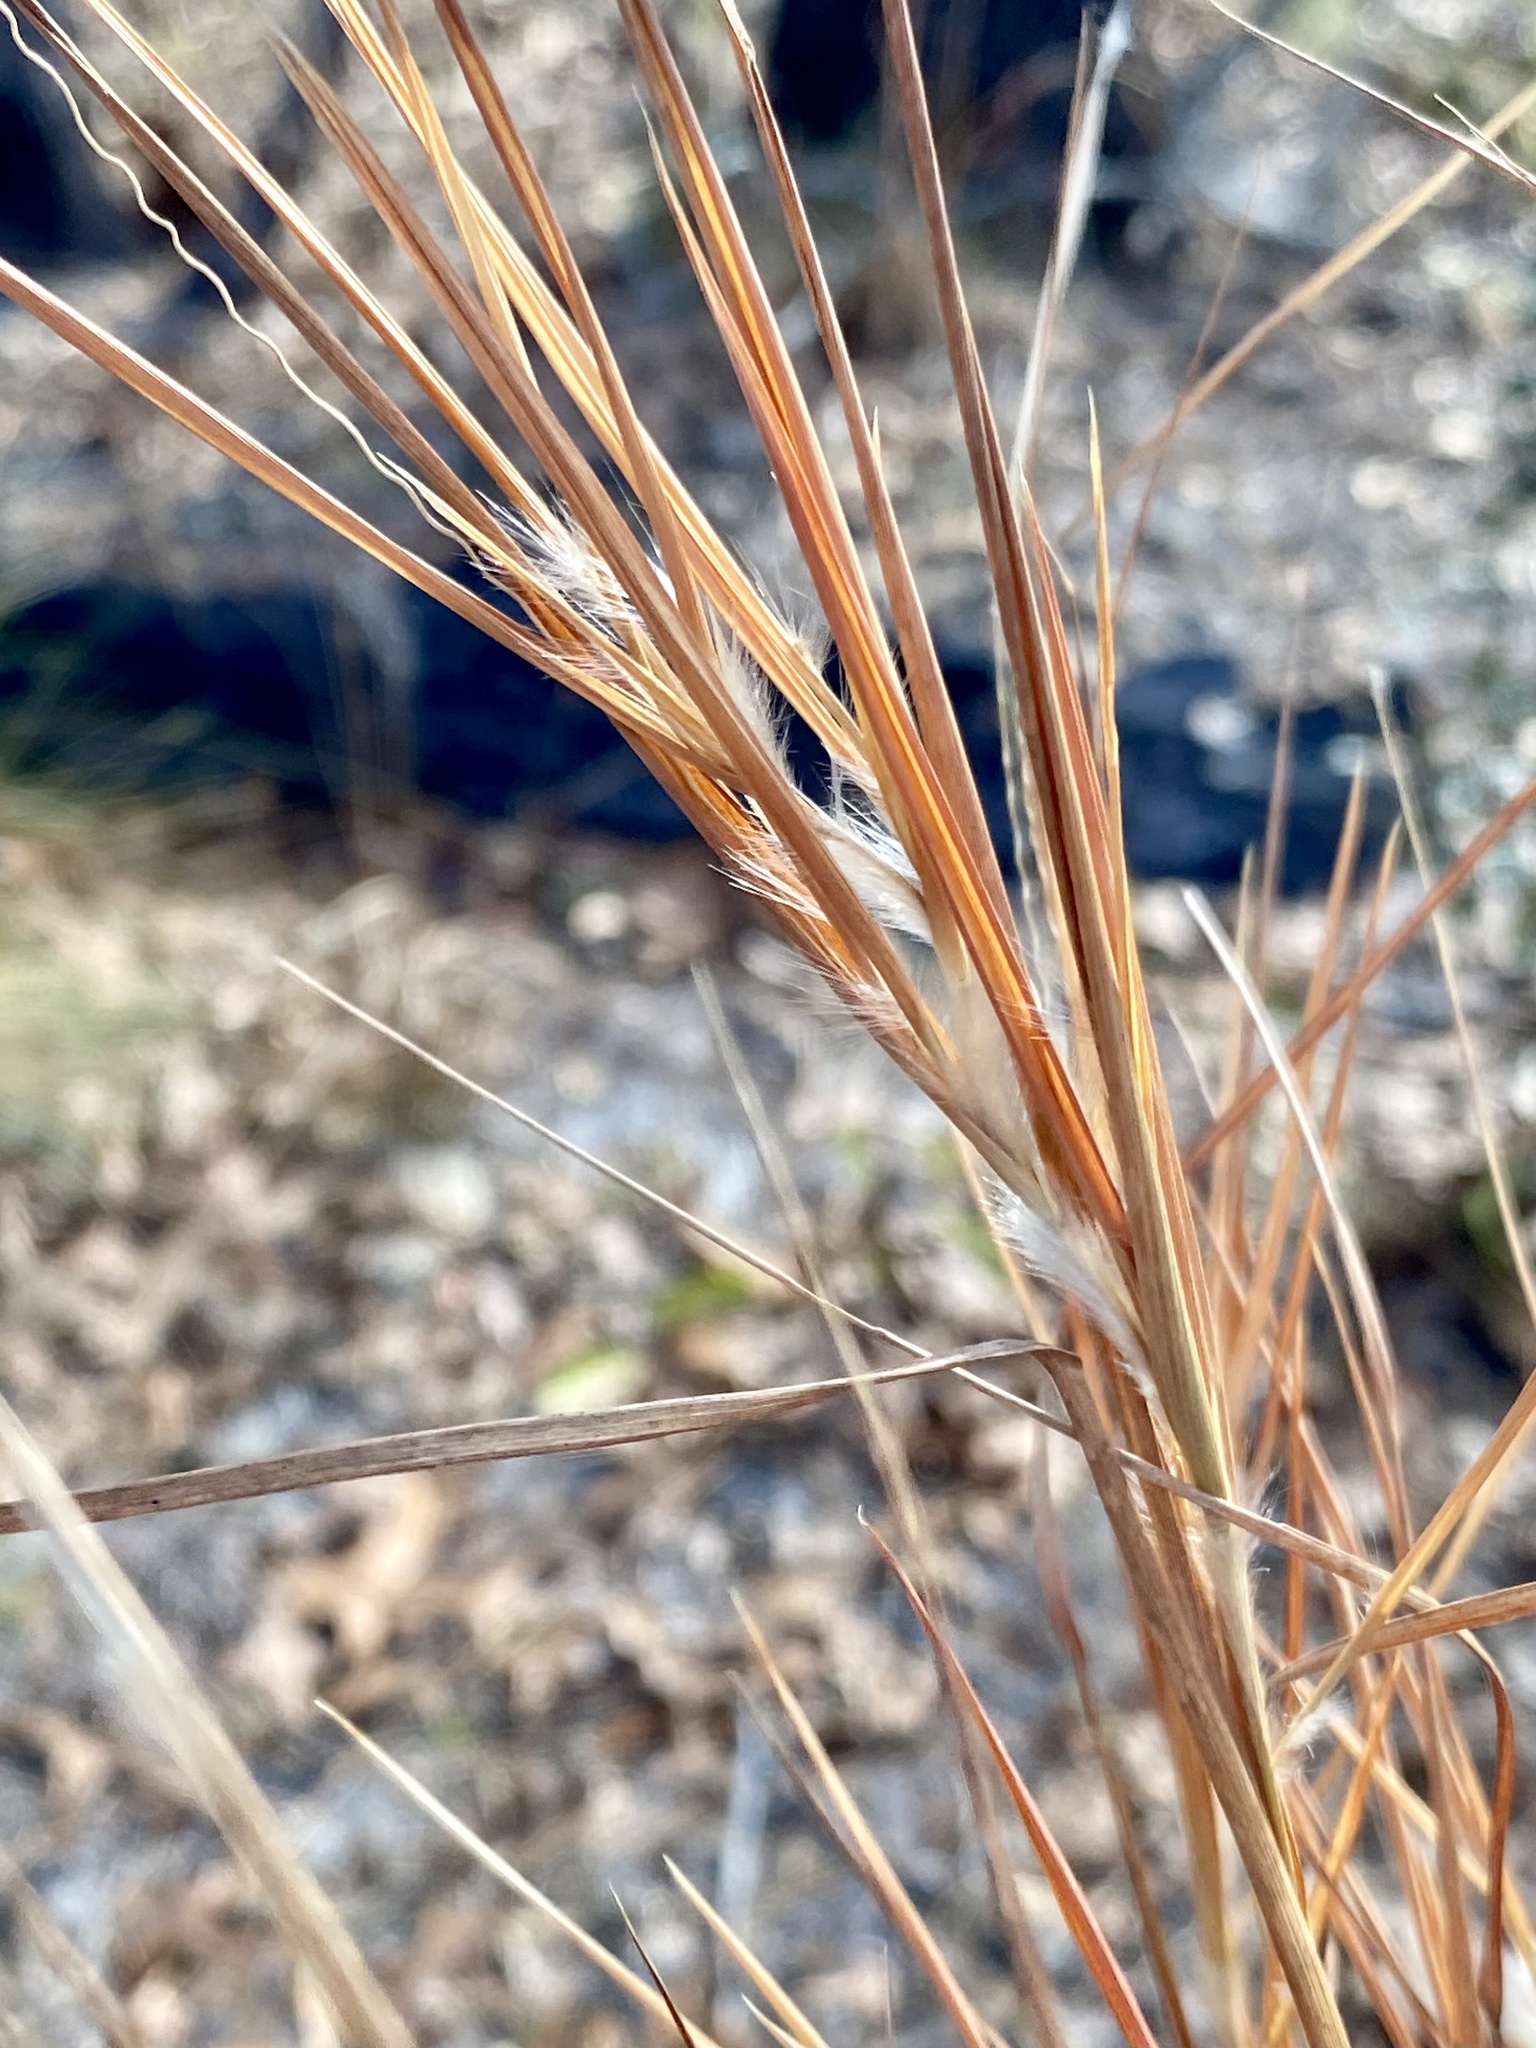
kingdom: Plantae
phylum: Tracheophyta
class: Liliopsida
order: Poales
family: Poaceae
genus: Andropogon
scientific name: Andropogon gyrans
